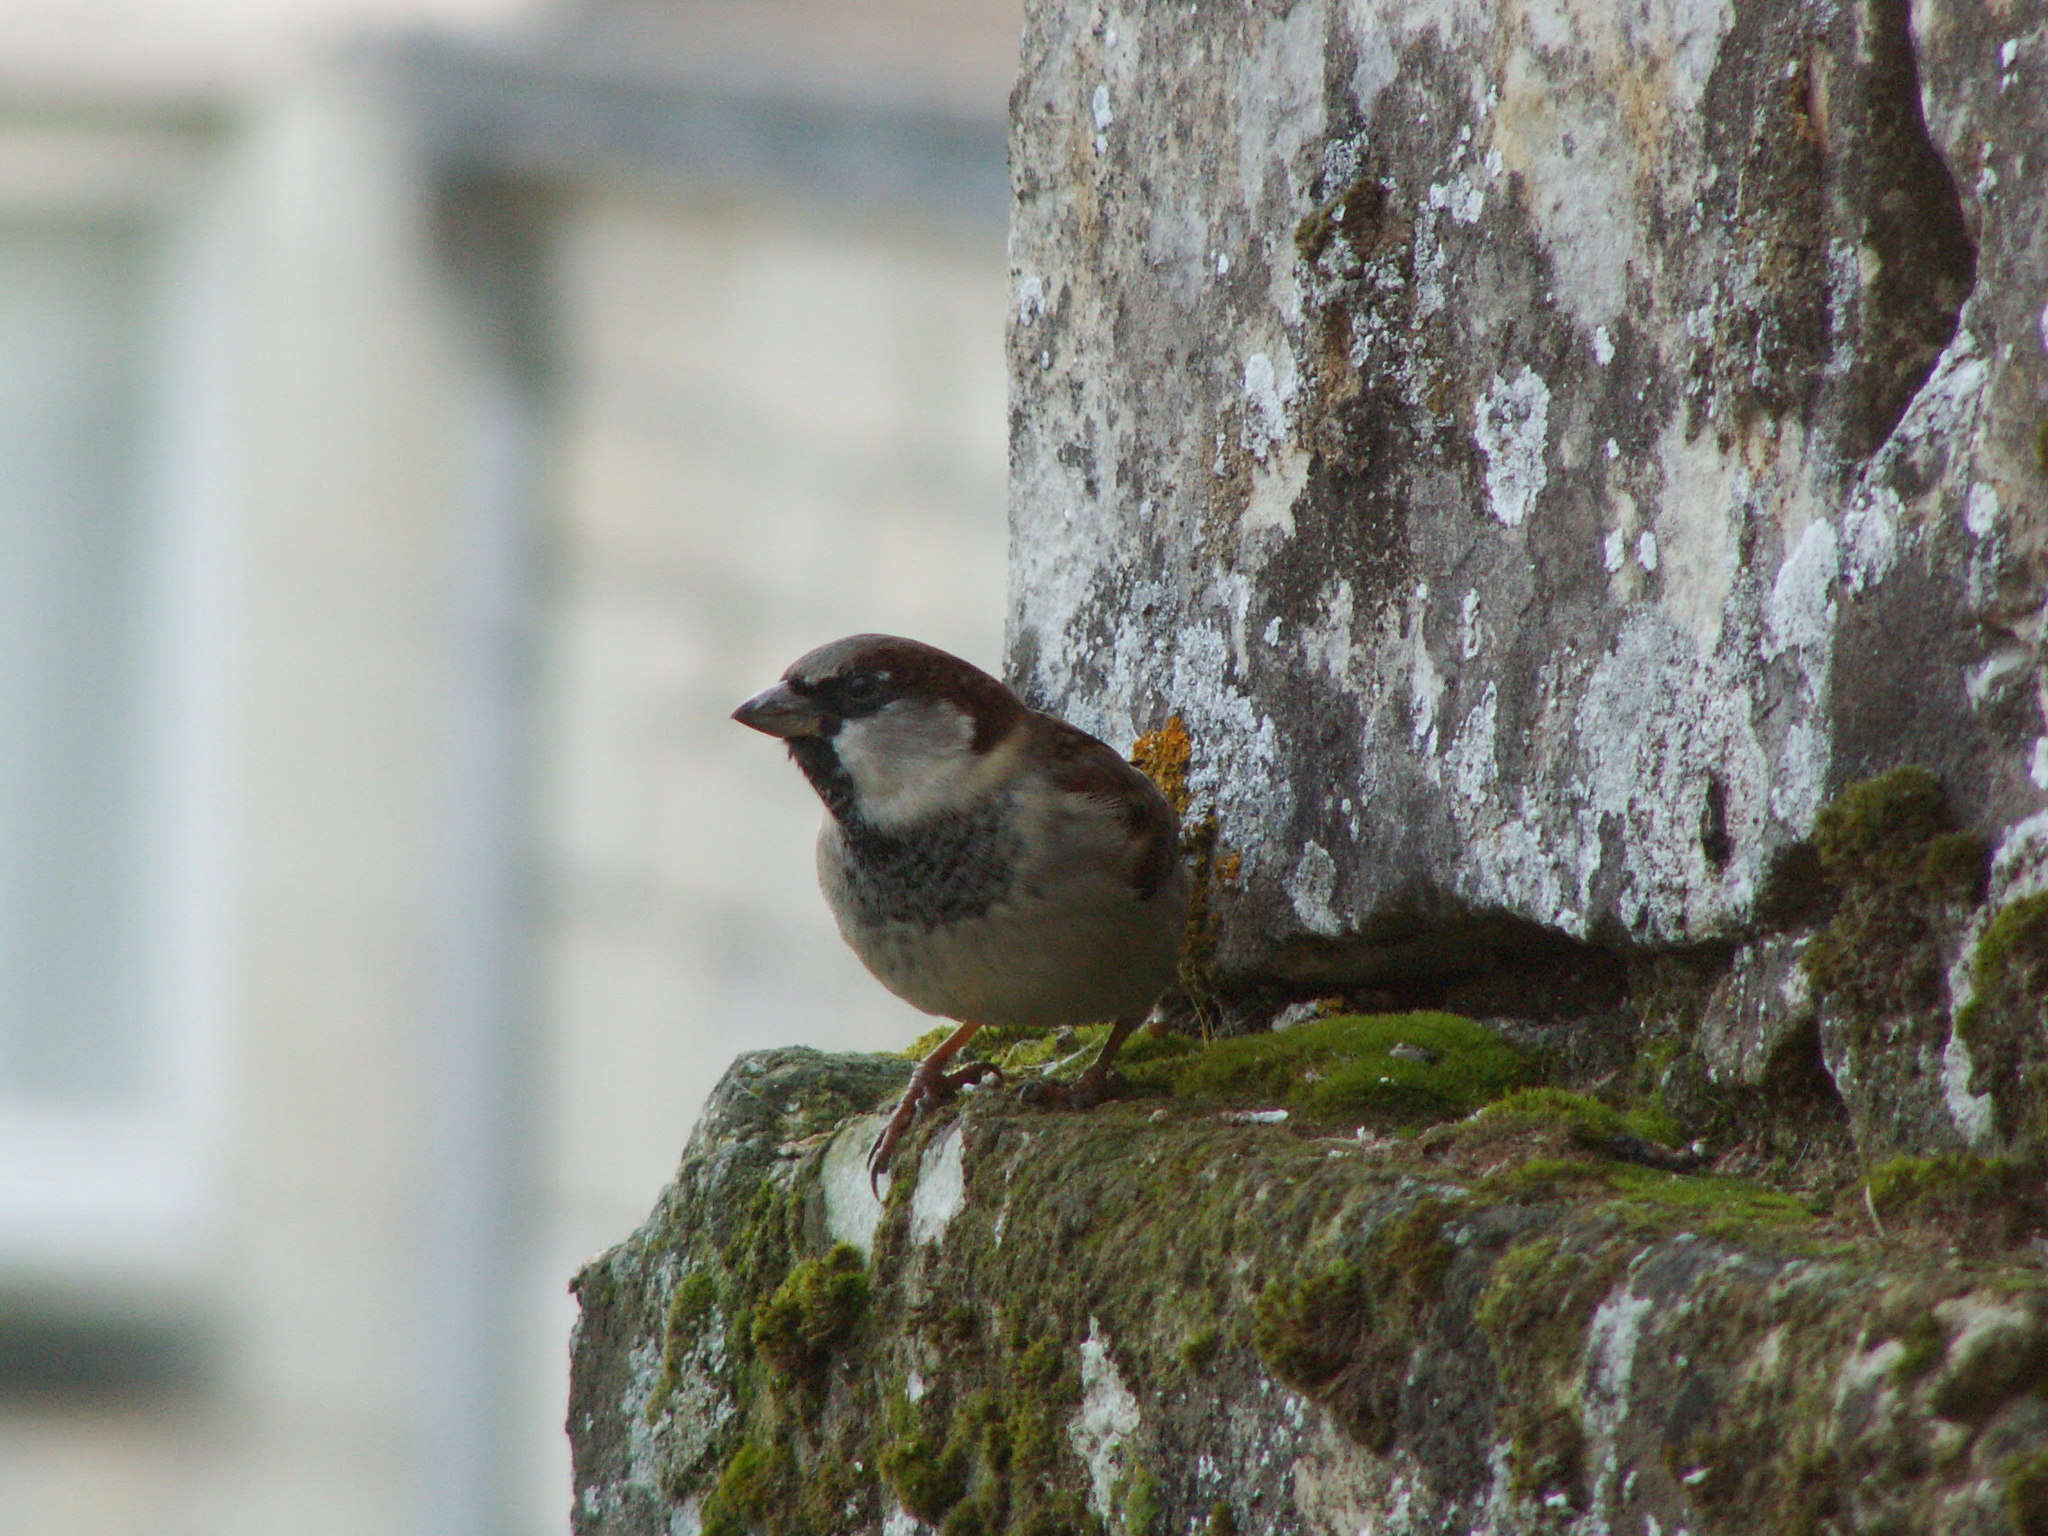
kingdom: Animalia
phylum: Chordata
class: Aves
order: Passeriformes
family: Passeridae
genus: Passer
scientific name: Passer domesticus
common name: House sparrow
